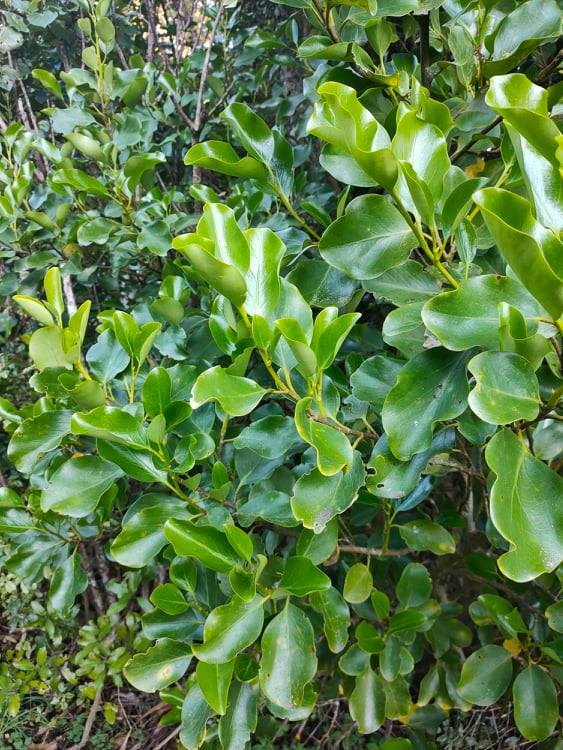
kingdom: Plantae
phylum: Tracheophyta
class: Magnoliopsida
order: Apiales
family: Griseliniaceae
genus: Griselinia
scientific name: Griselinia littoralis
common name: New zealand broadleaf
